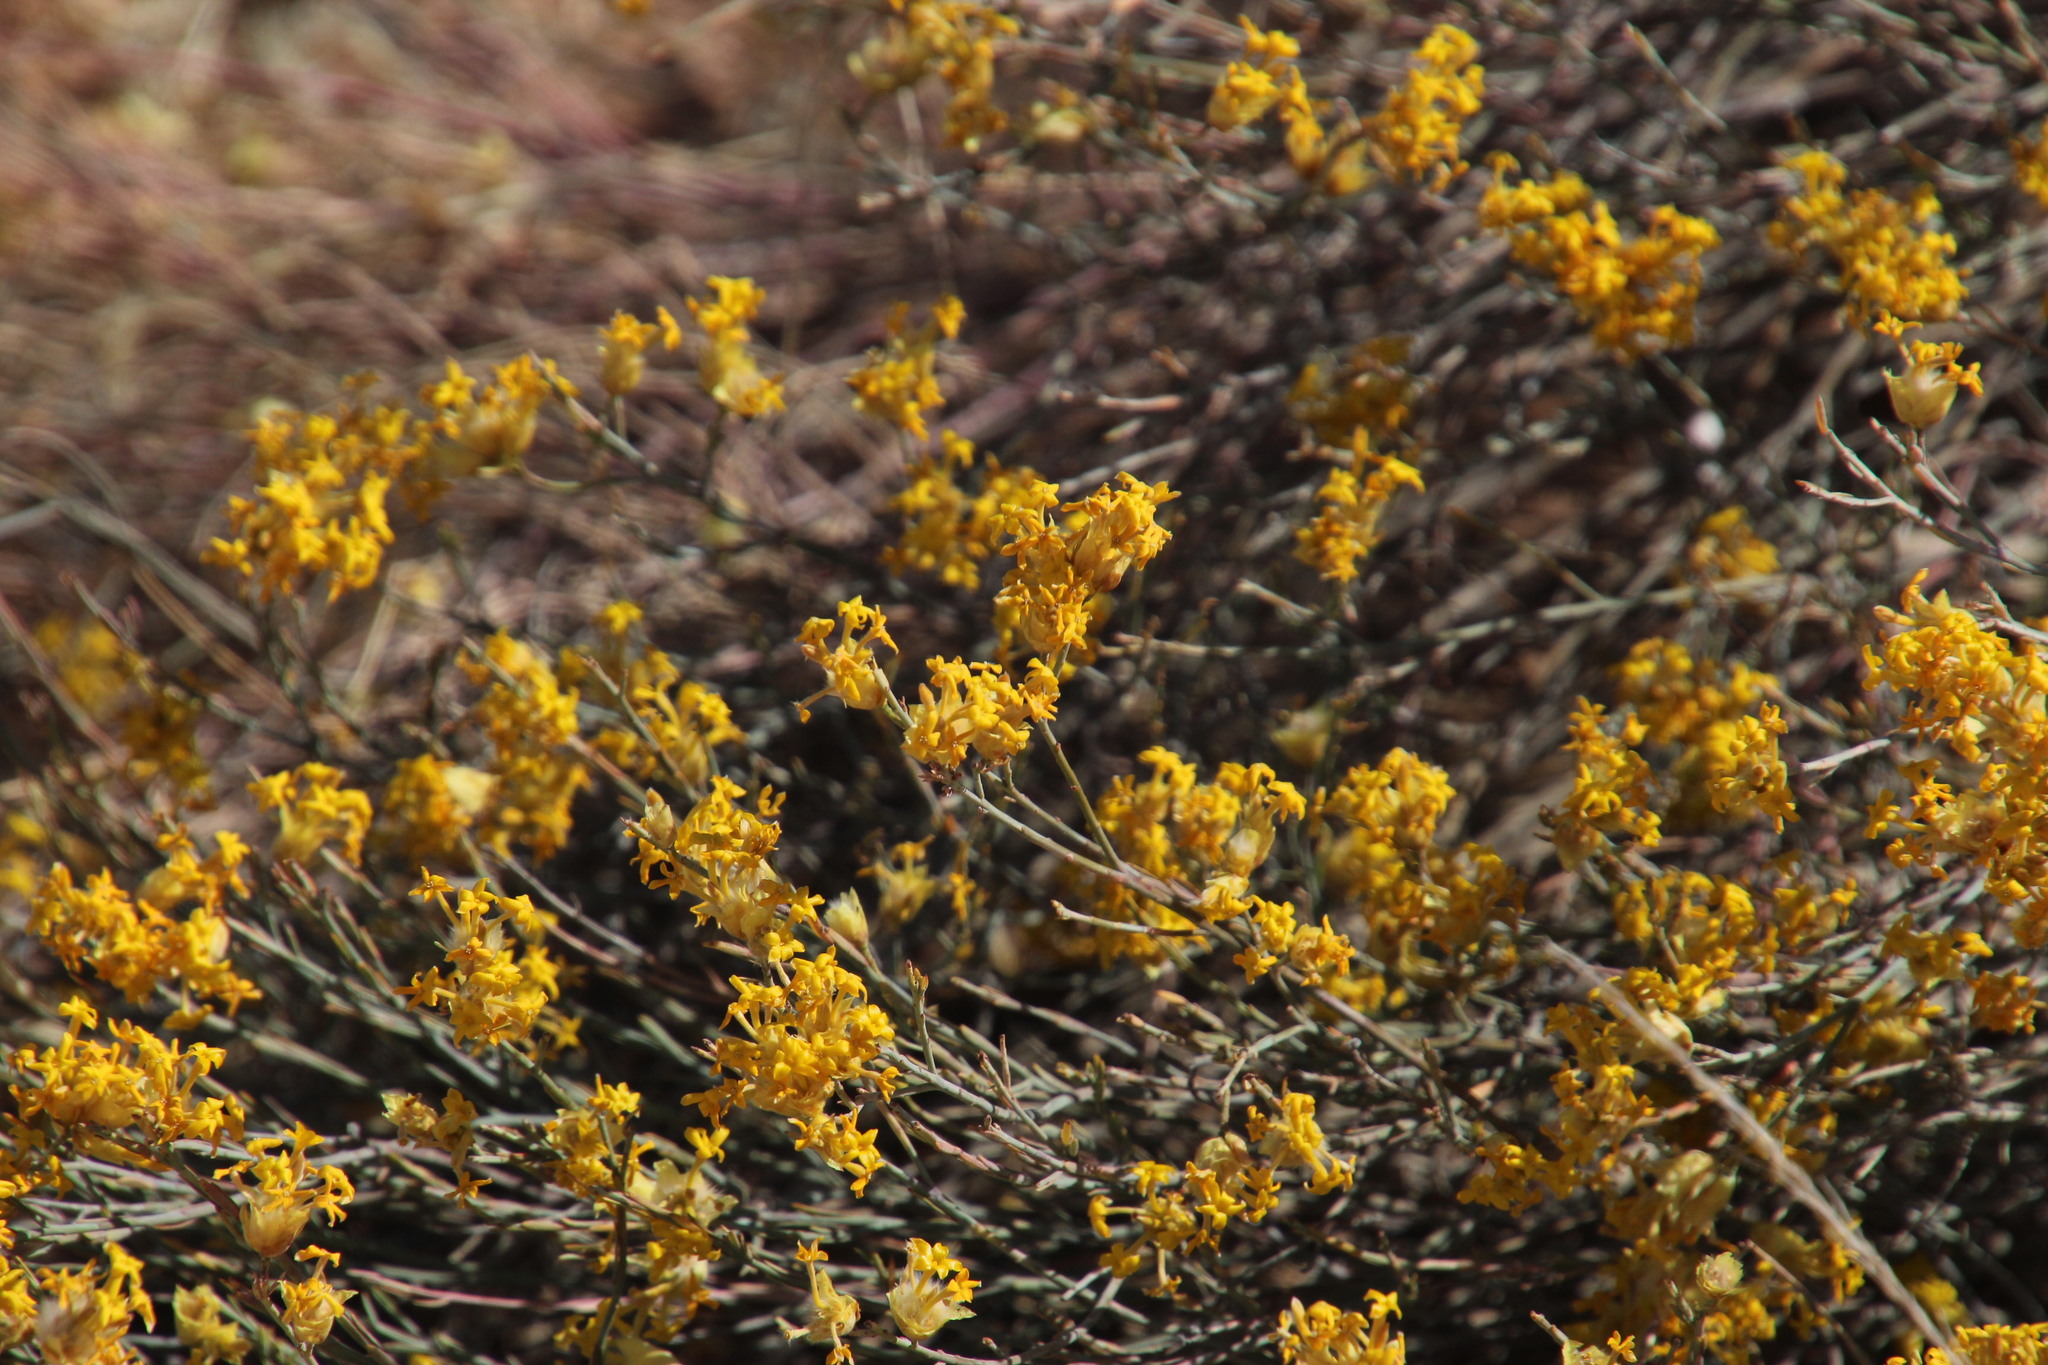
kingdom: Plantae
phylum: Tracheophyta
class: Magnoliopsida
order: Malvales
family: Thymelaeaceae
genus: Gnidia
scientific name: Gnidia polycephala
